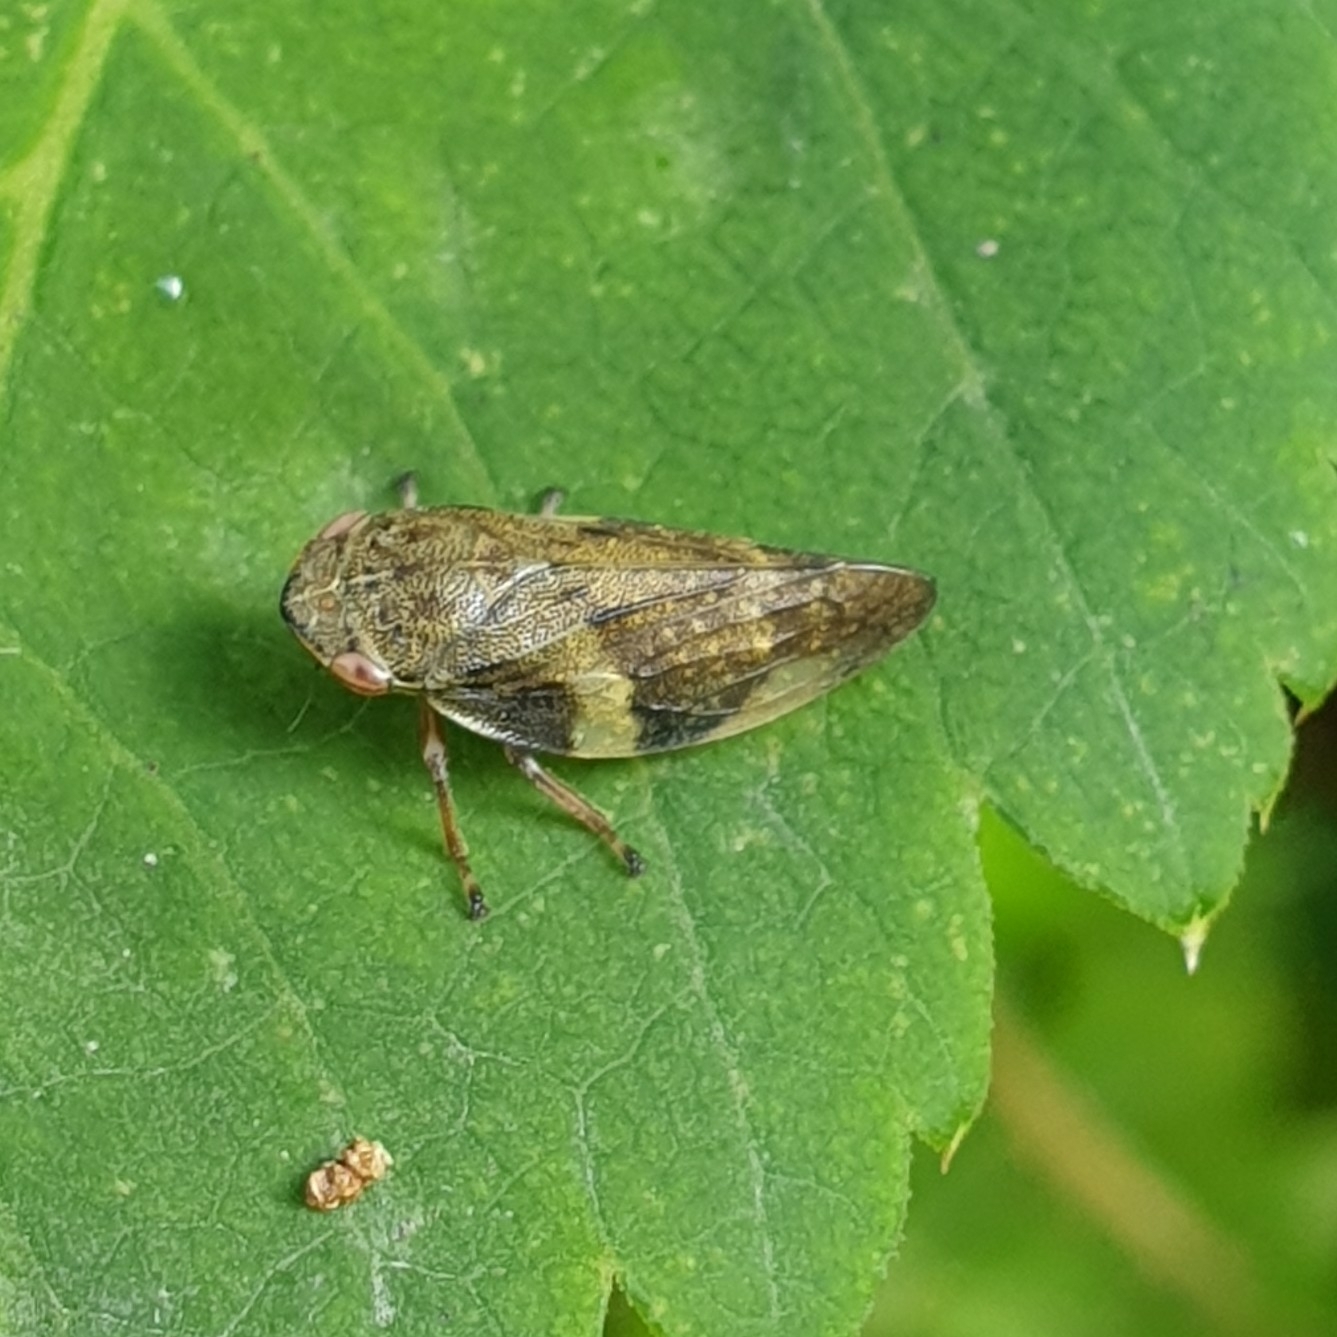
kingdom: Animalia
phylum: Arthropoda
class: Insecta
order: Hemiptera
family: Aphrophoridae
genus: Aphrophora
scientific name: Aphrophora alni
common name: European alder spittlebug
